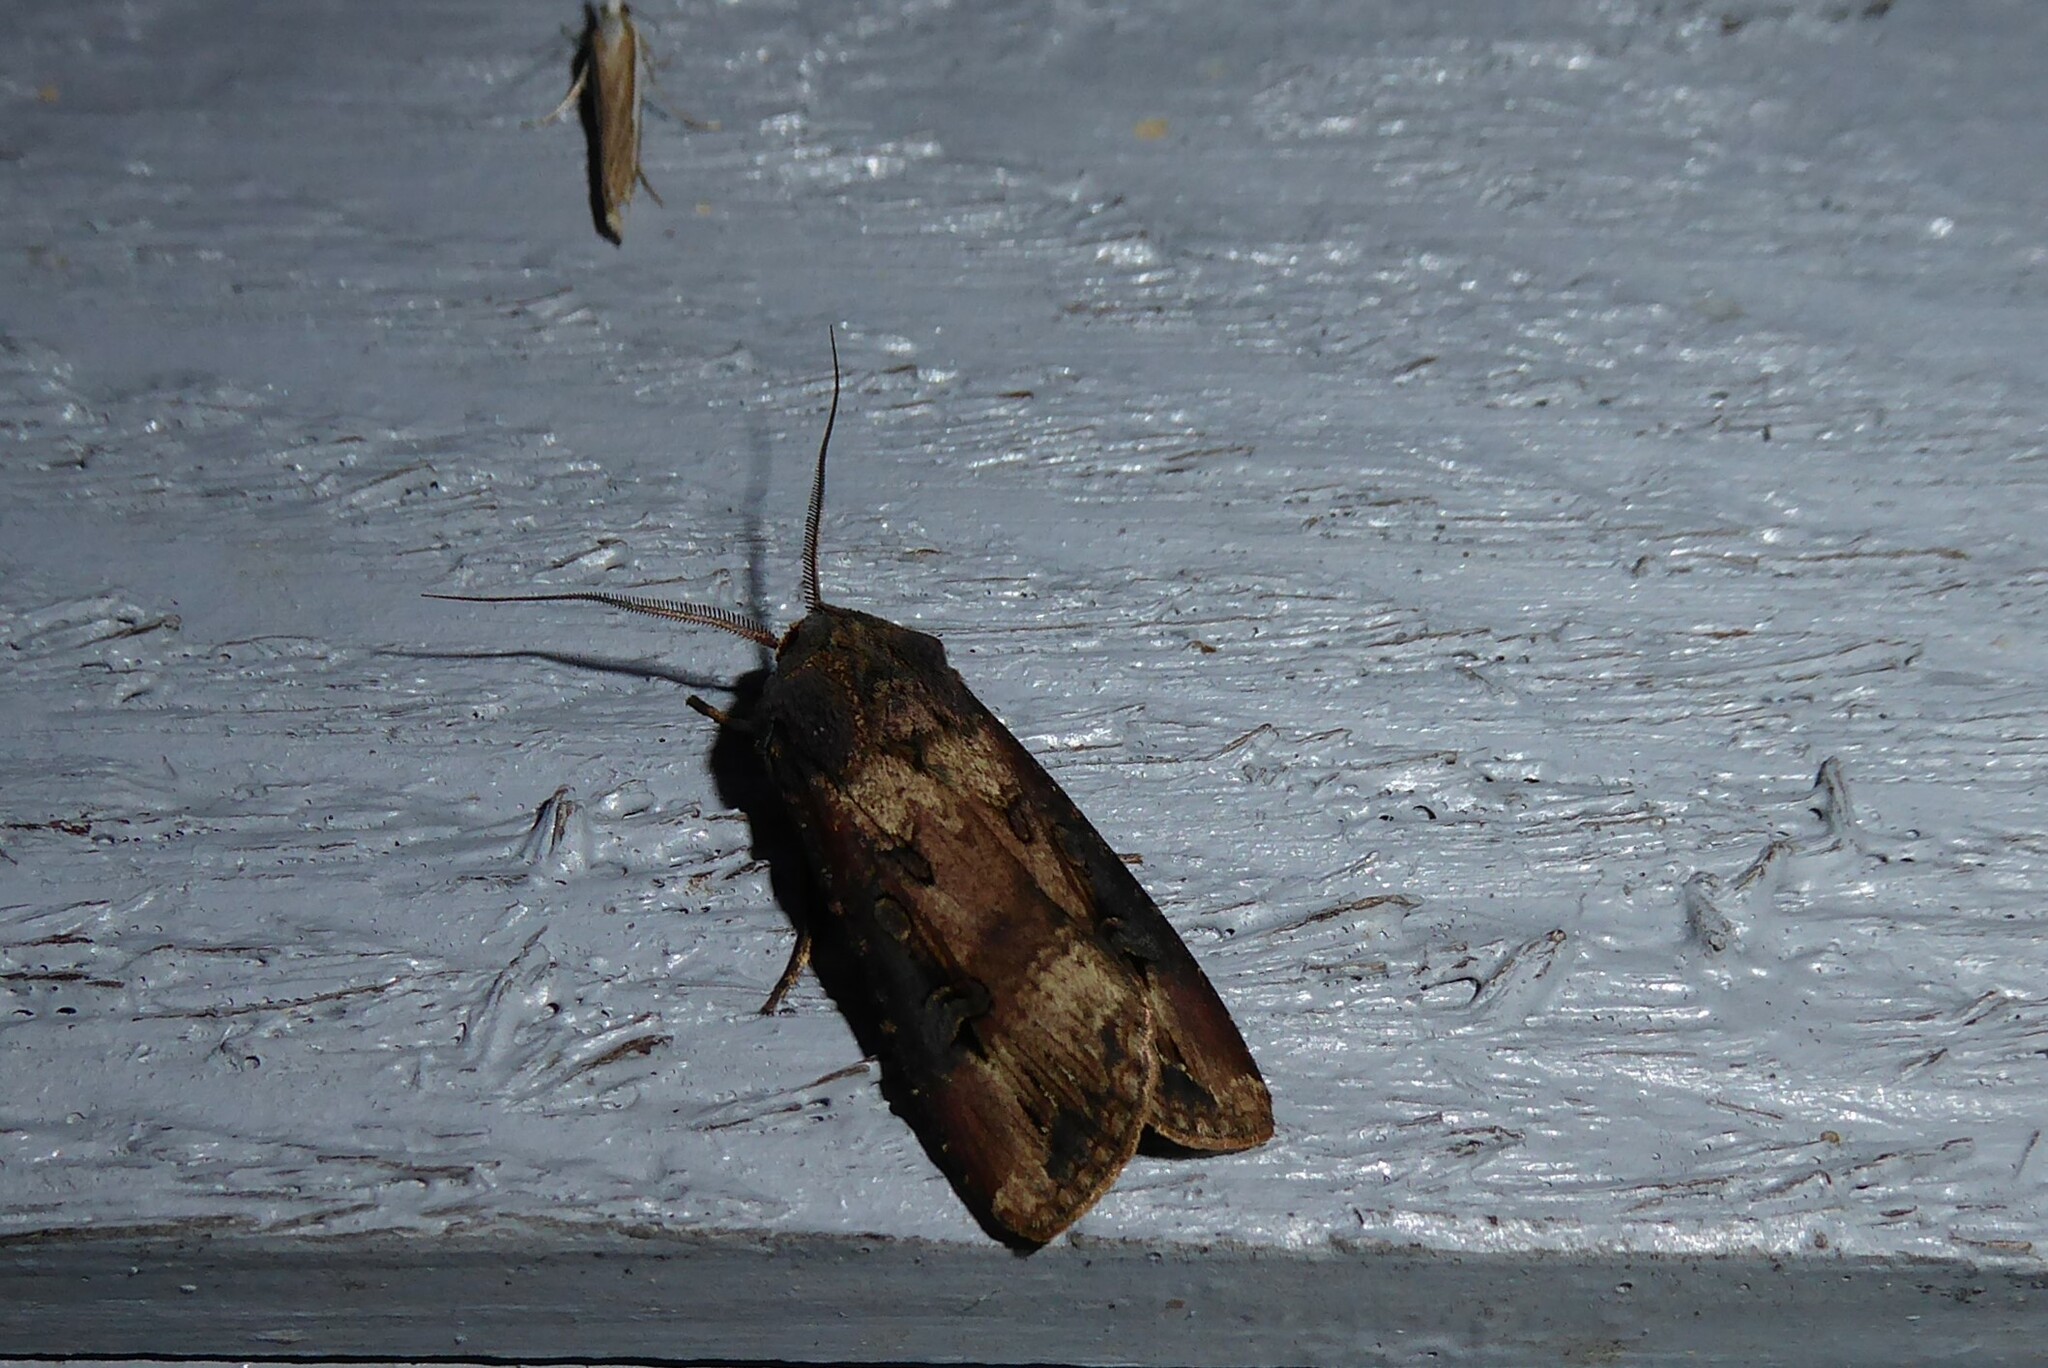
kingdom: Animalia
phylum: Arthropoda
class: Insecta
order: Lepidoptera
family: Noctuidae
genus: Agrotis
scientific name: Agrotis ipsilon
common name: Dark sword-grass
